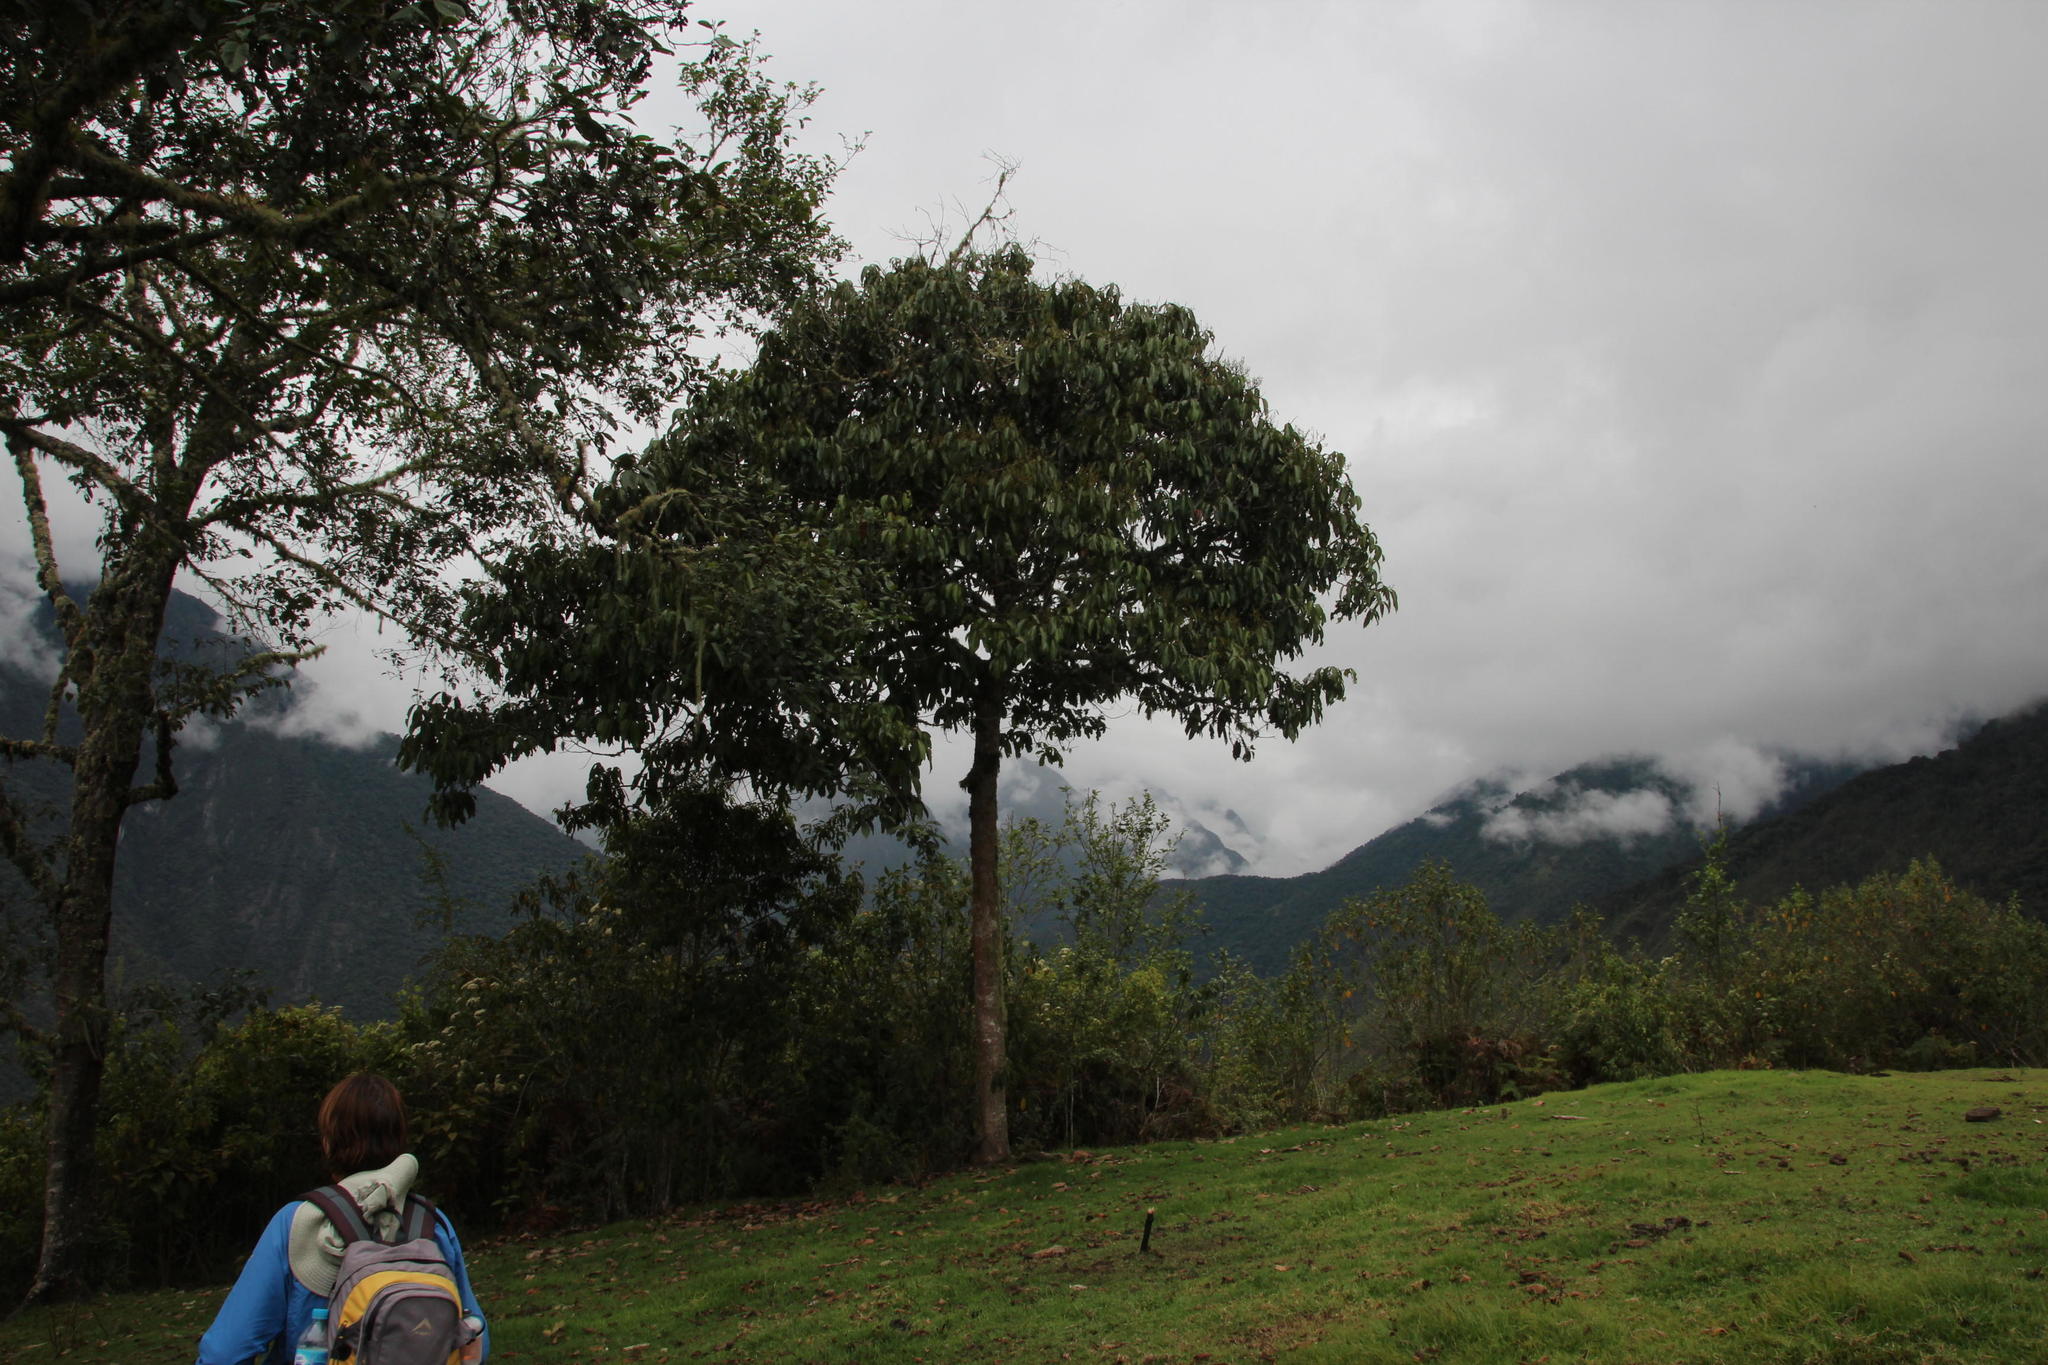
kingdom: Plantae
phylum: Tracheophyta
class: Magnoliopsida
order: Laurales
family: Lauraceae
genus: Persea
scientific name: Persea americana
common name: Avocado
